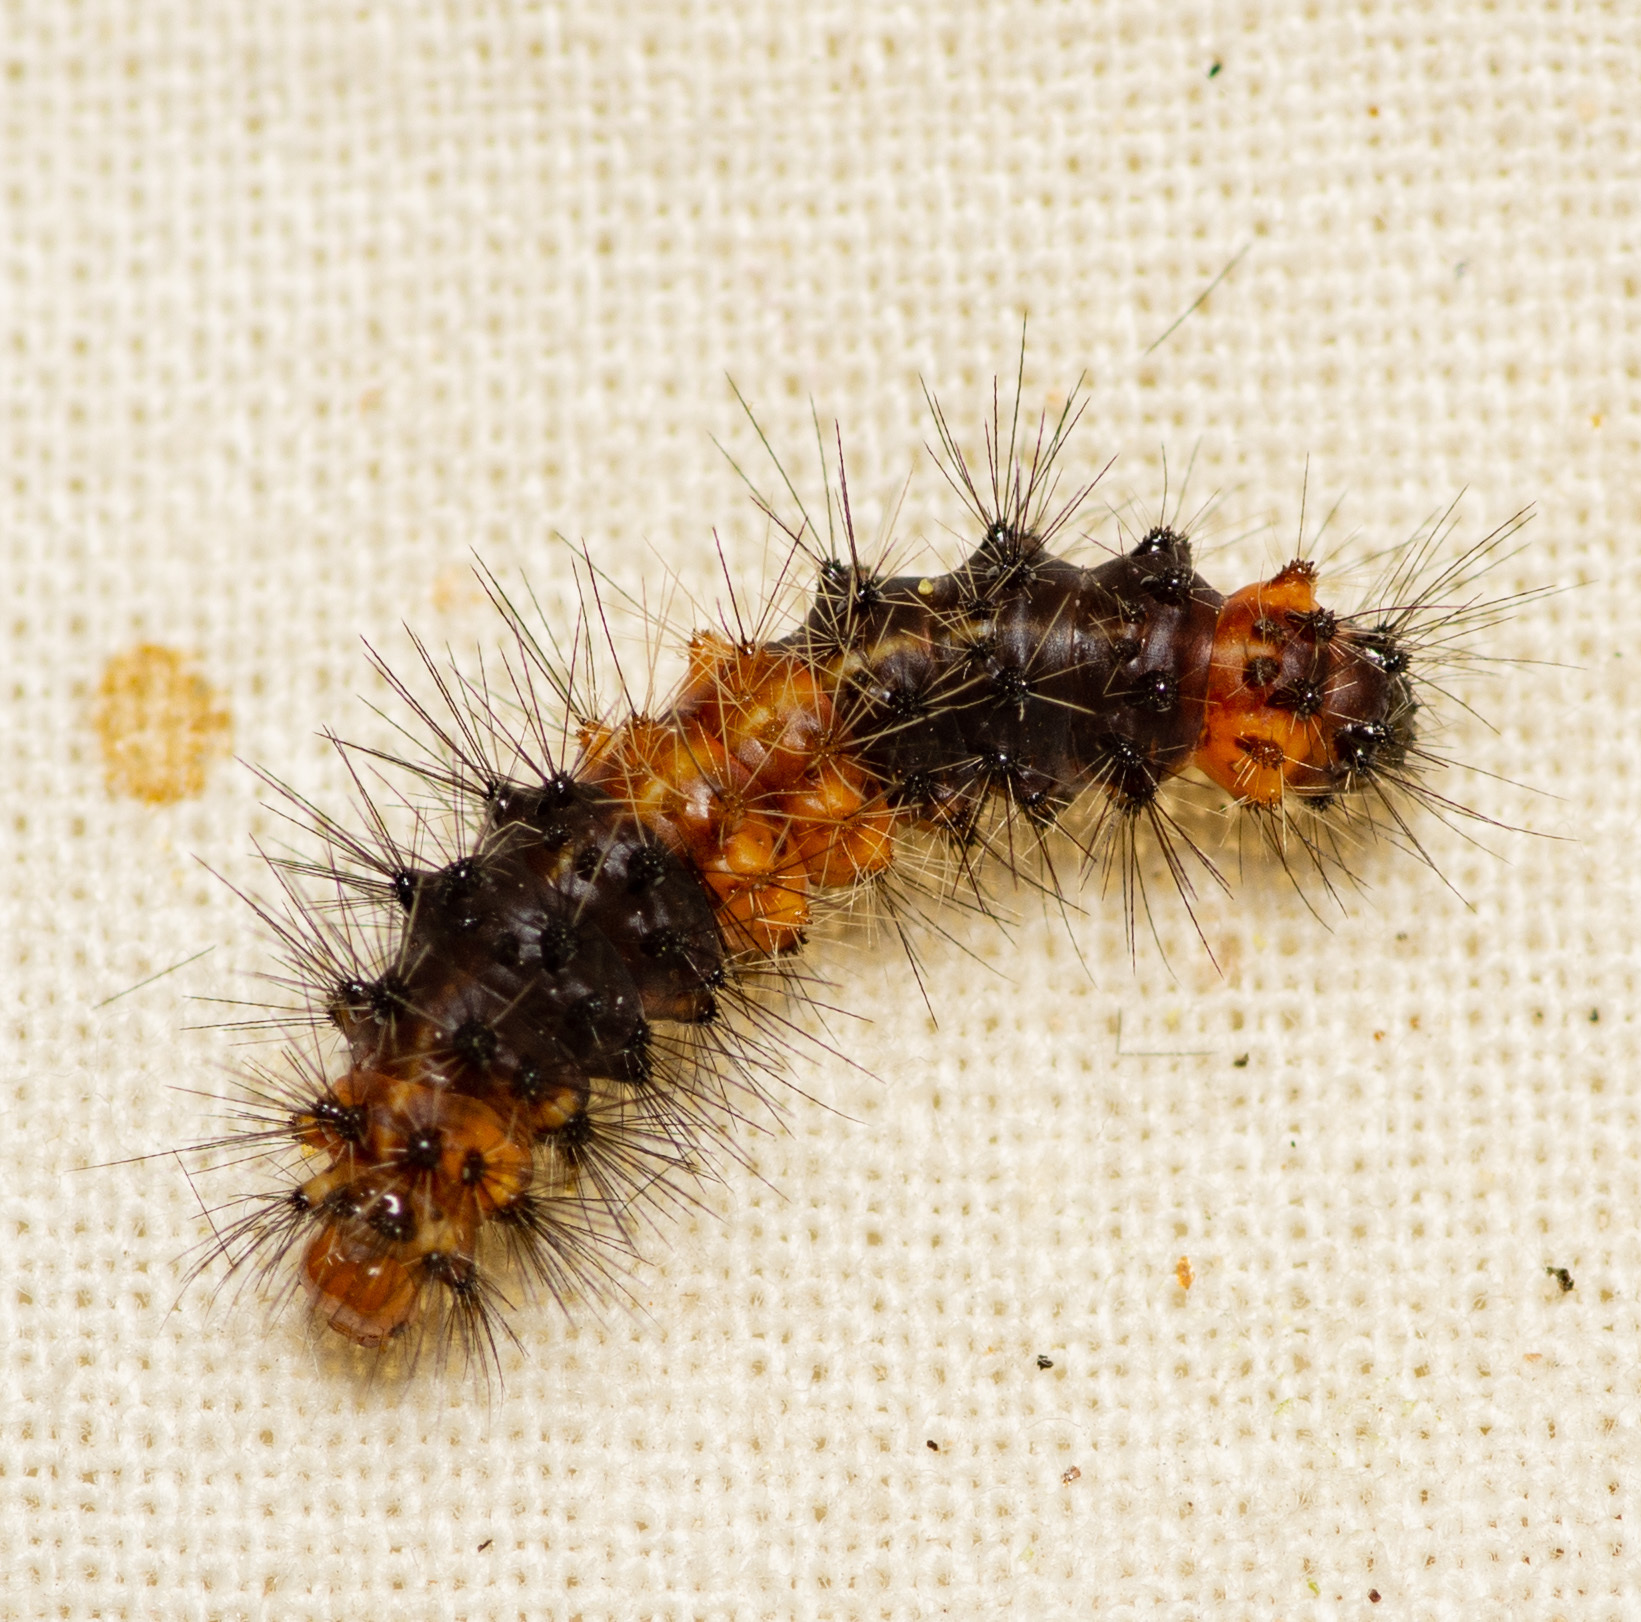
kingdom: Animalia
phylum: Arthropoda
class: Insecta
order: Lepidoptera
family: Erebidae
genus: Hypercompe
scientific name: Hypercompe scribonia
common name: Giant leopard moth
